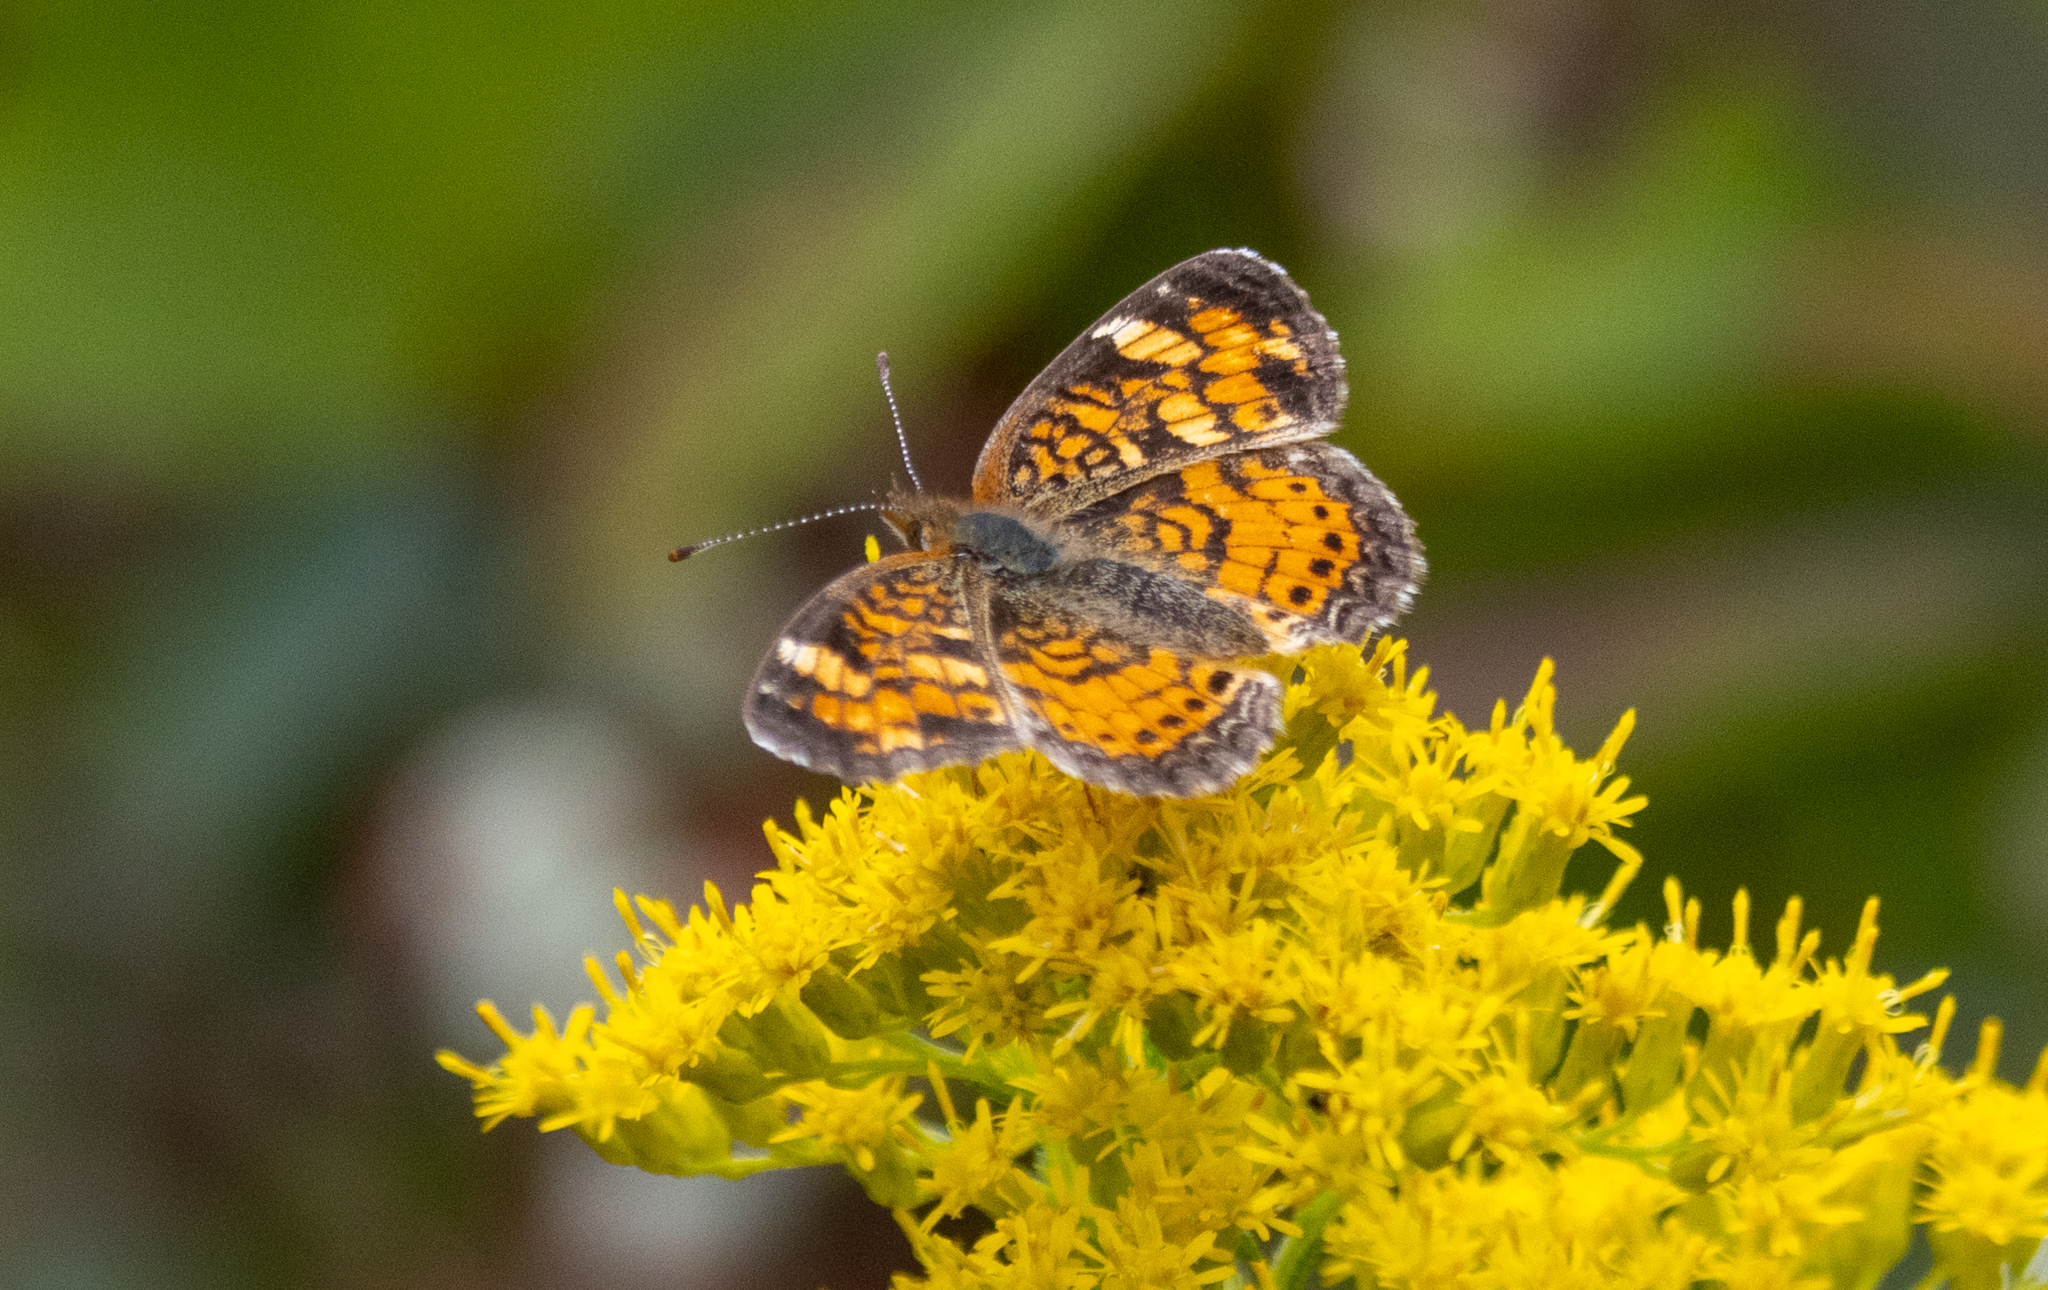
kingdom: Animalia
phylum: Arthropoda
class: Insecta
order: Lepidoptera
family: Nymphalidae
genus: Phyciodes
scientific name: Phyciodes tharos
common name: Pearl crescent
